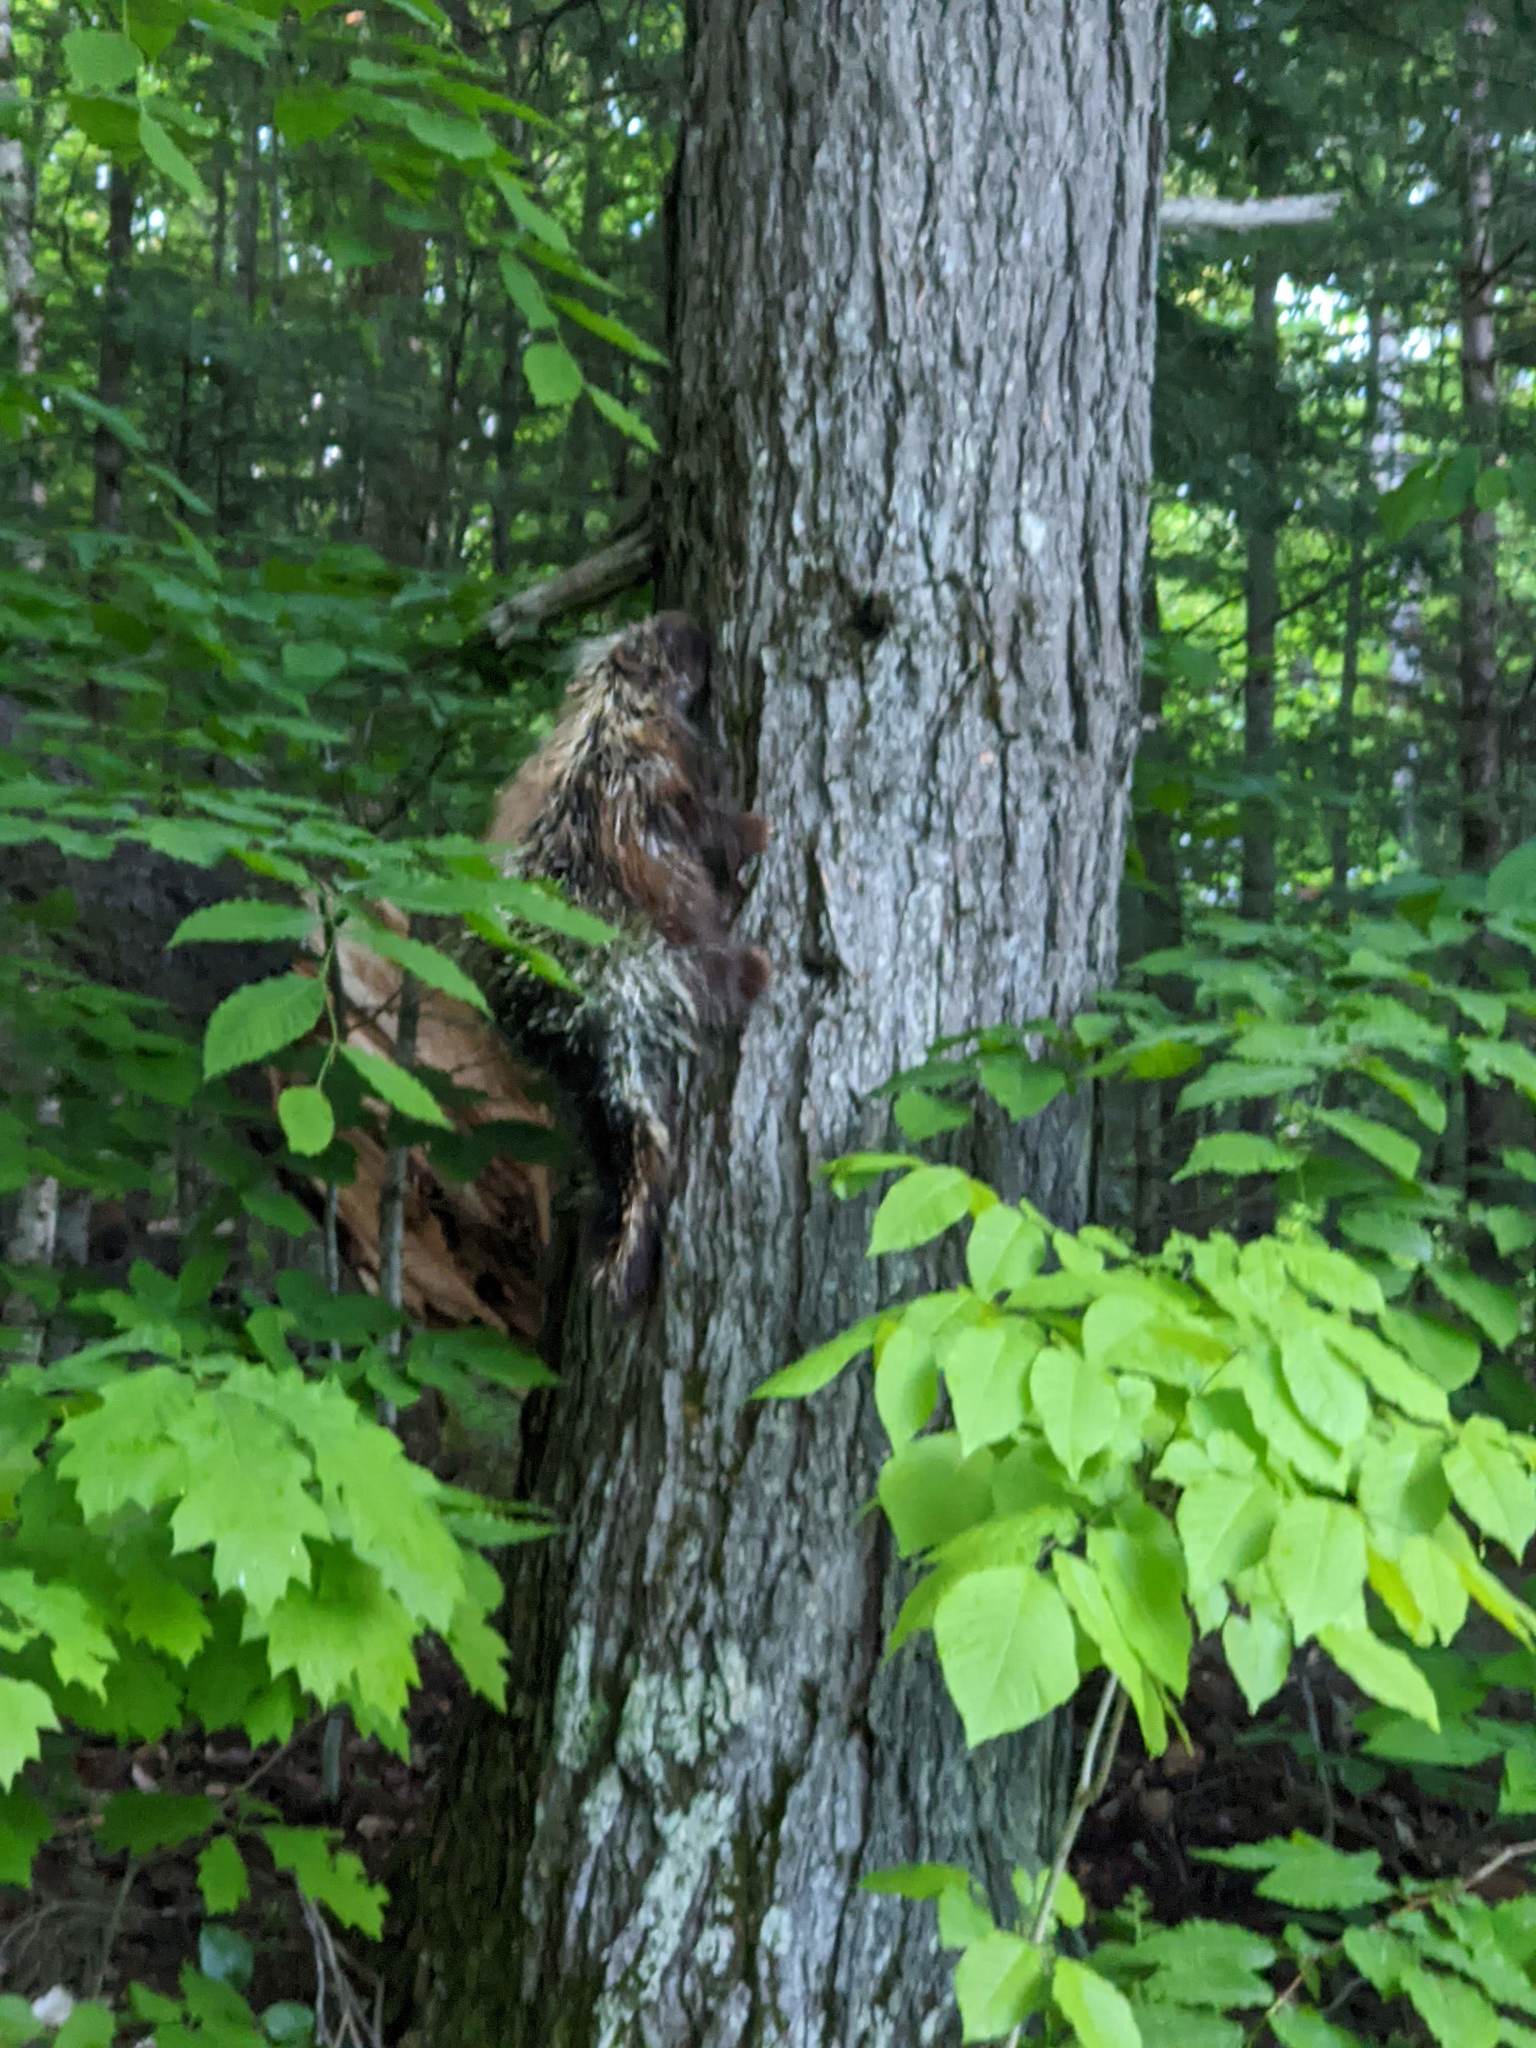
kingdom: Animalia
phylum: Chordata
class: Mammalia
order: Rodentia
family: Erethizontidae
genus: Erethizon
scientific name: Erethizon dorsatus
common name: North american porcupine
